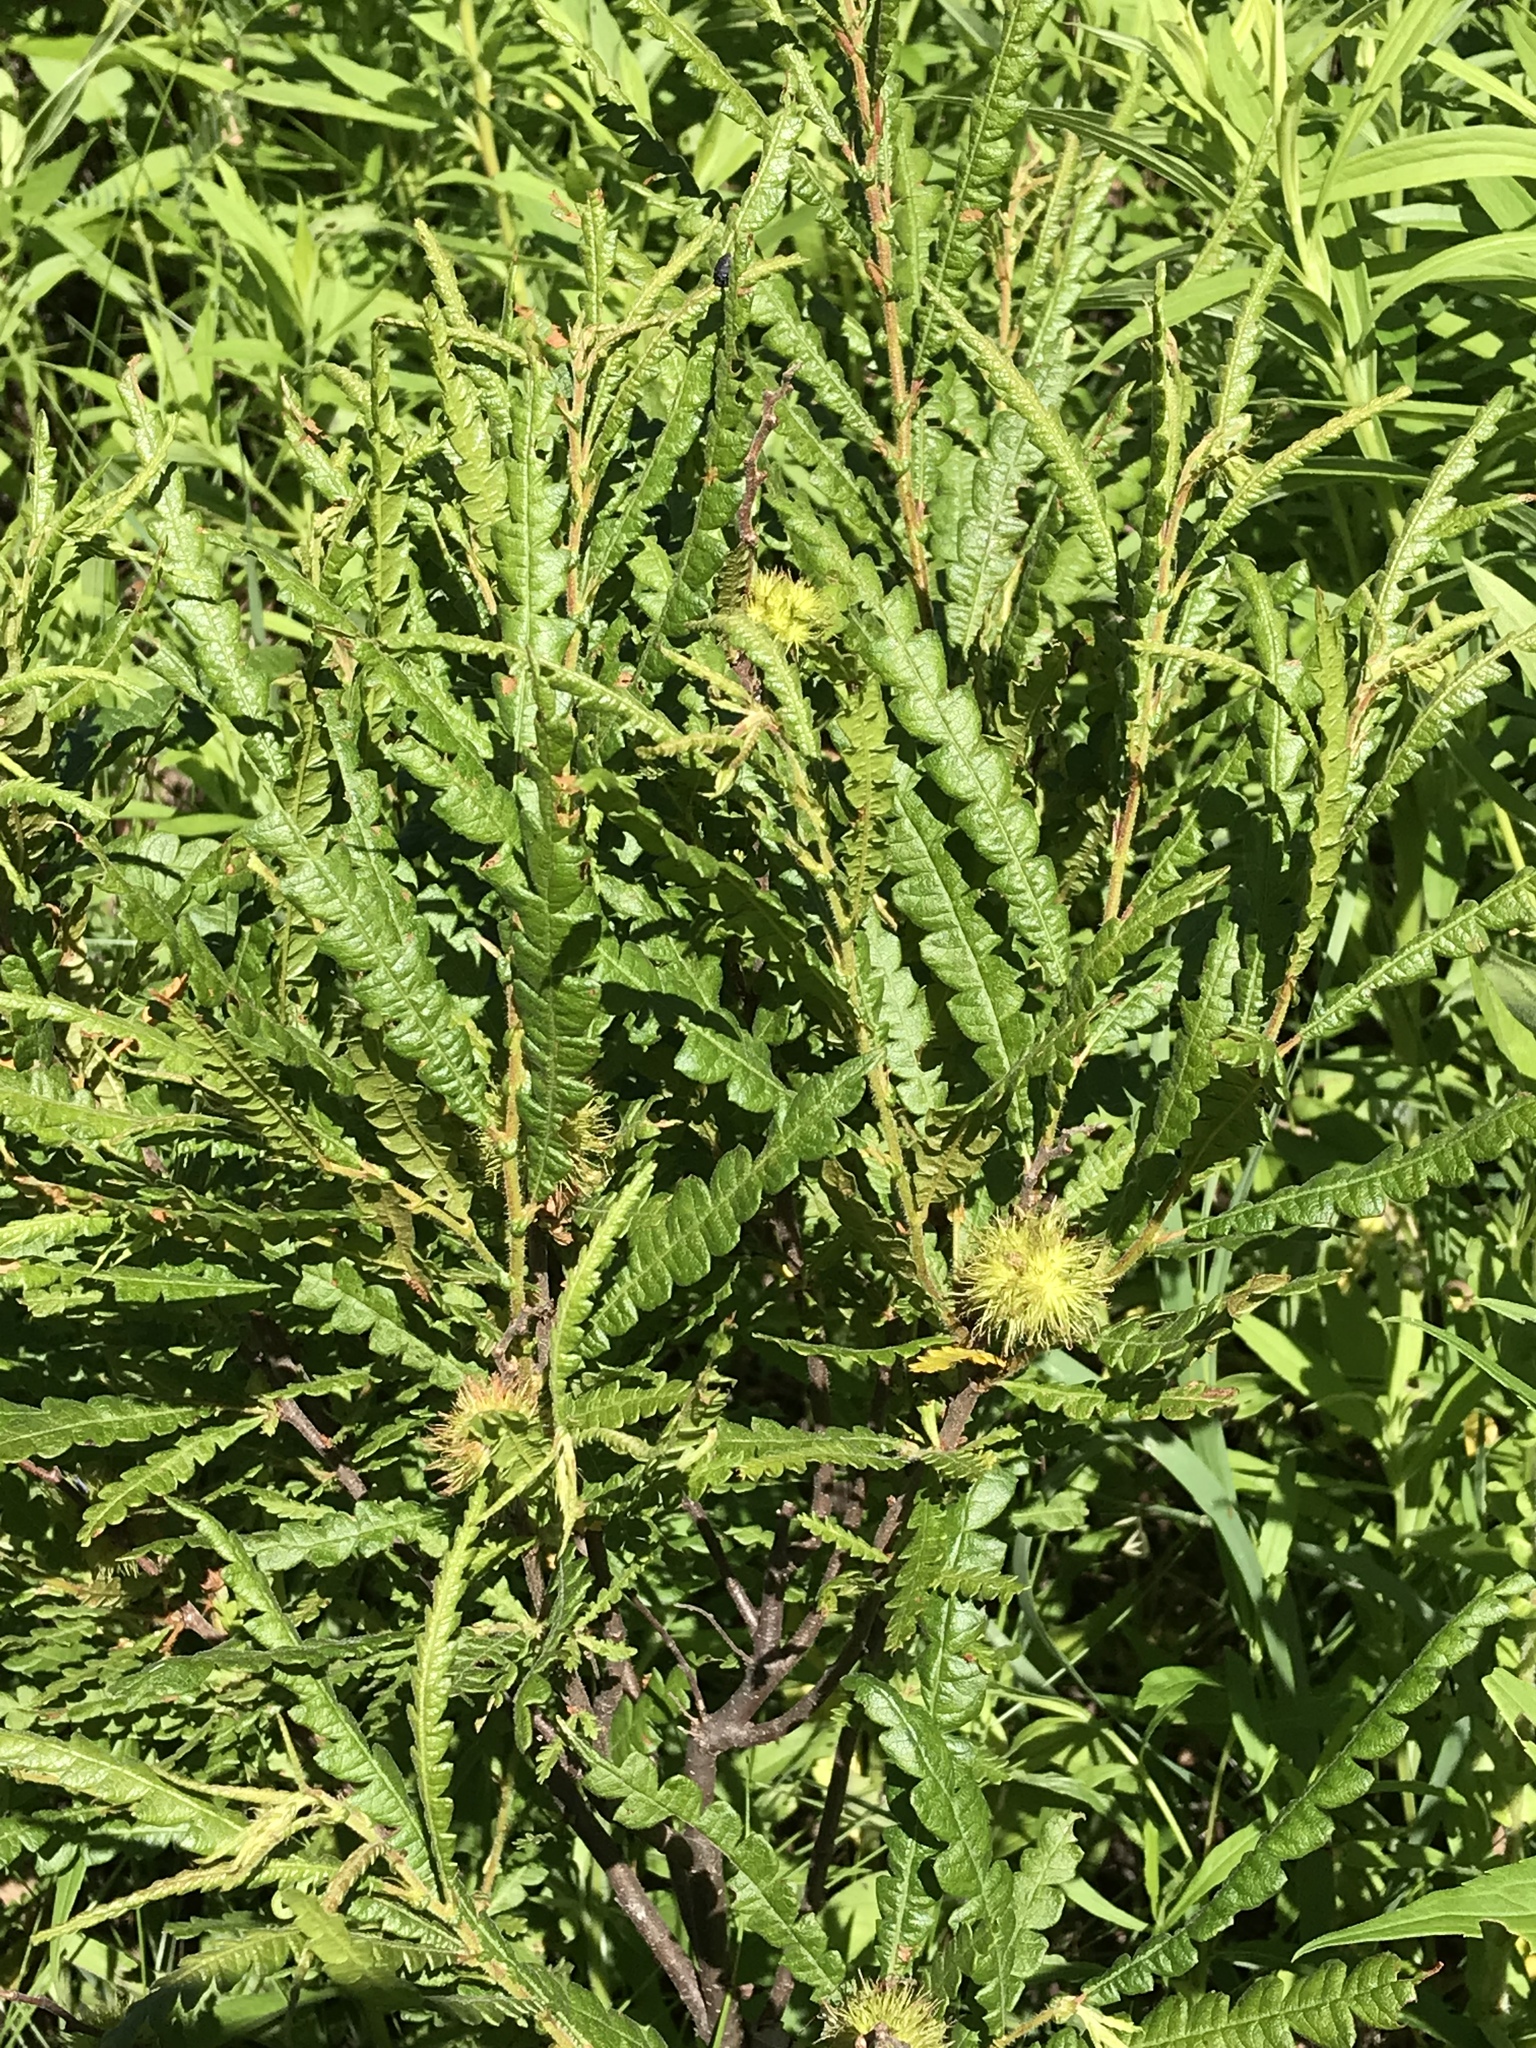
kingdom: Plantae
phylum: Tracheophyta
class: Magnoliopsida
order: Fagales
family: Myricaceae
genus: Comptonia
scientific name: Comptonia peregrina
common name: Sweet-fern
